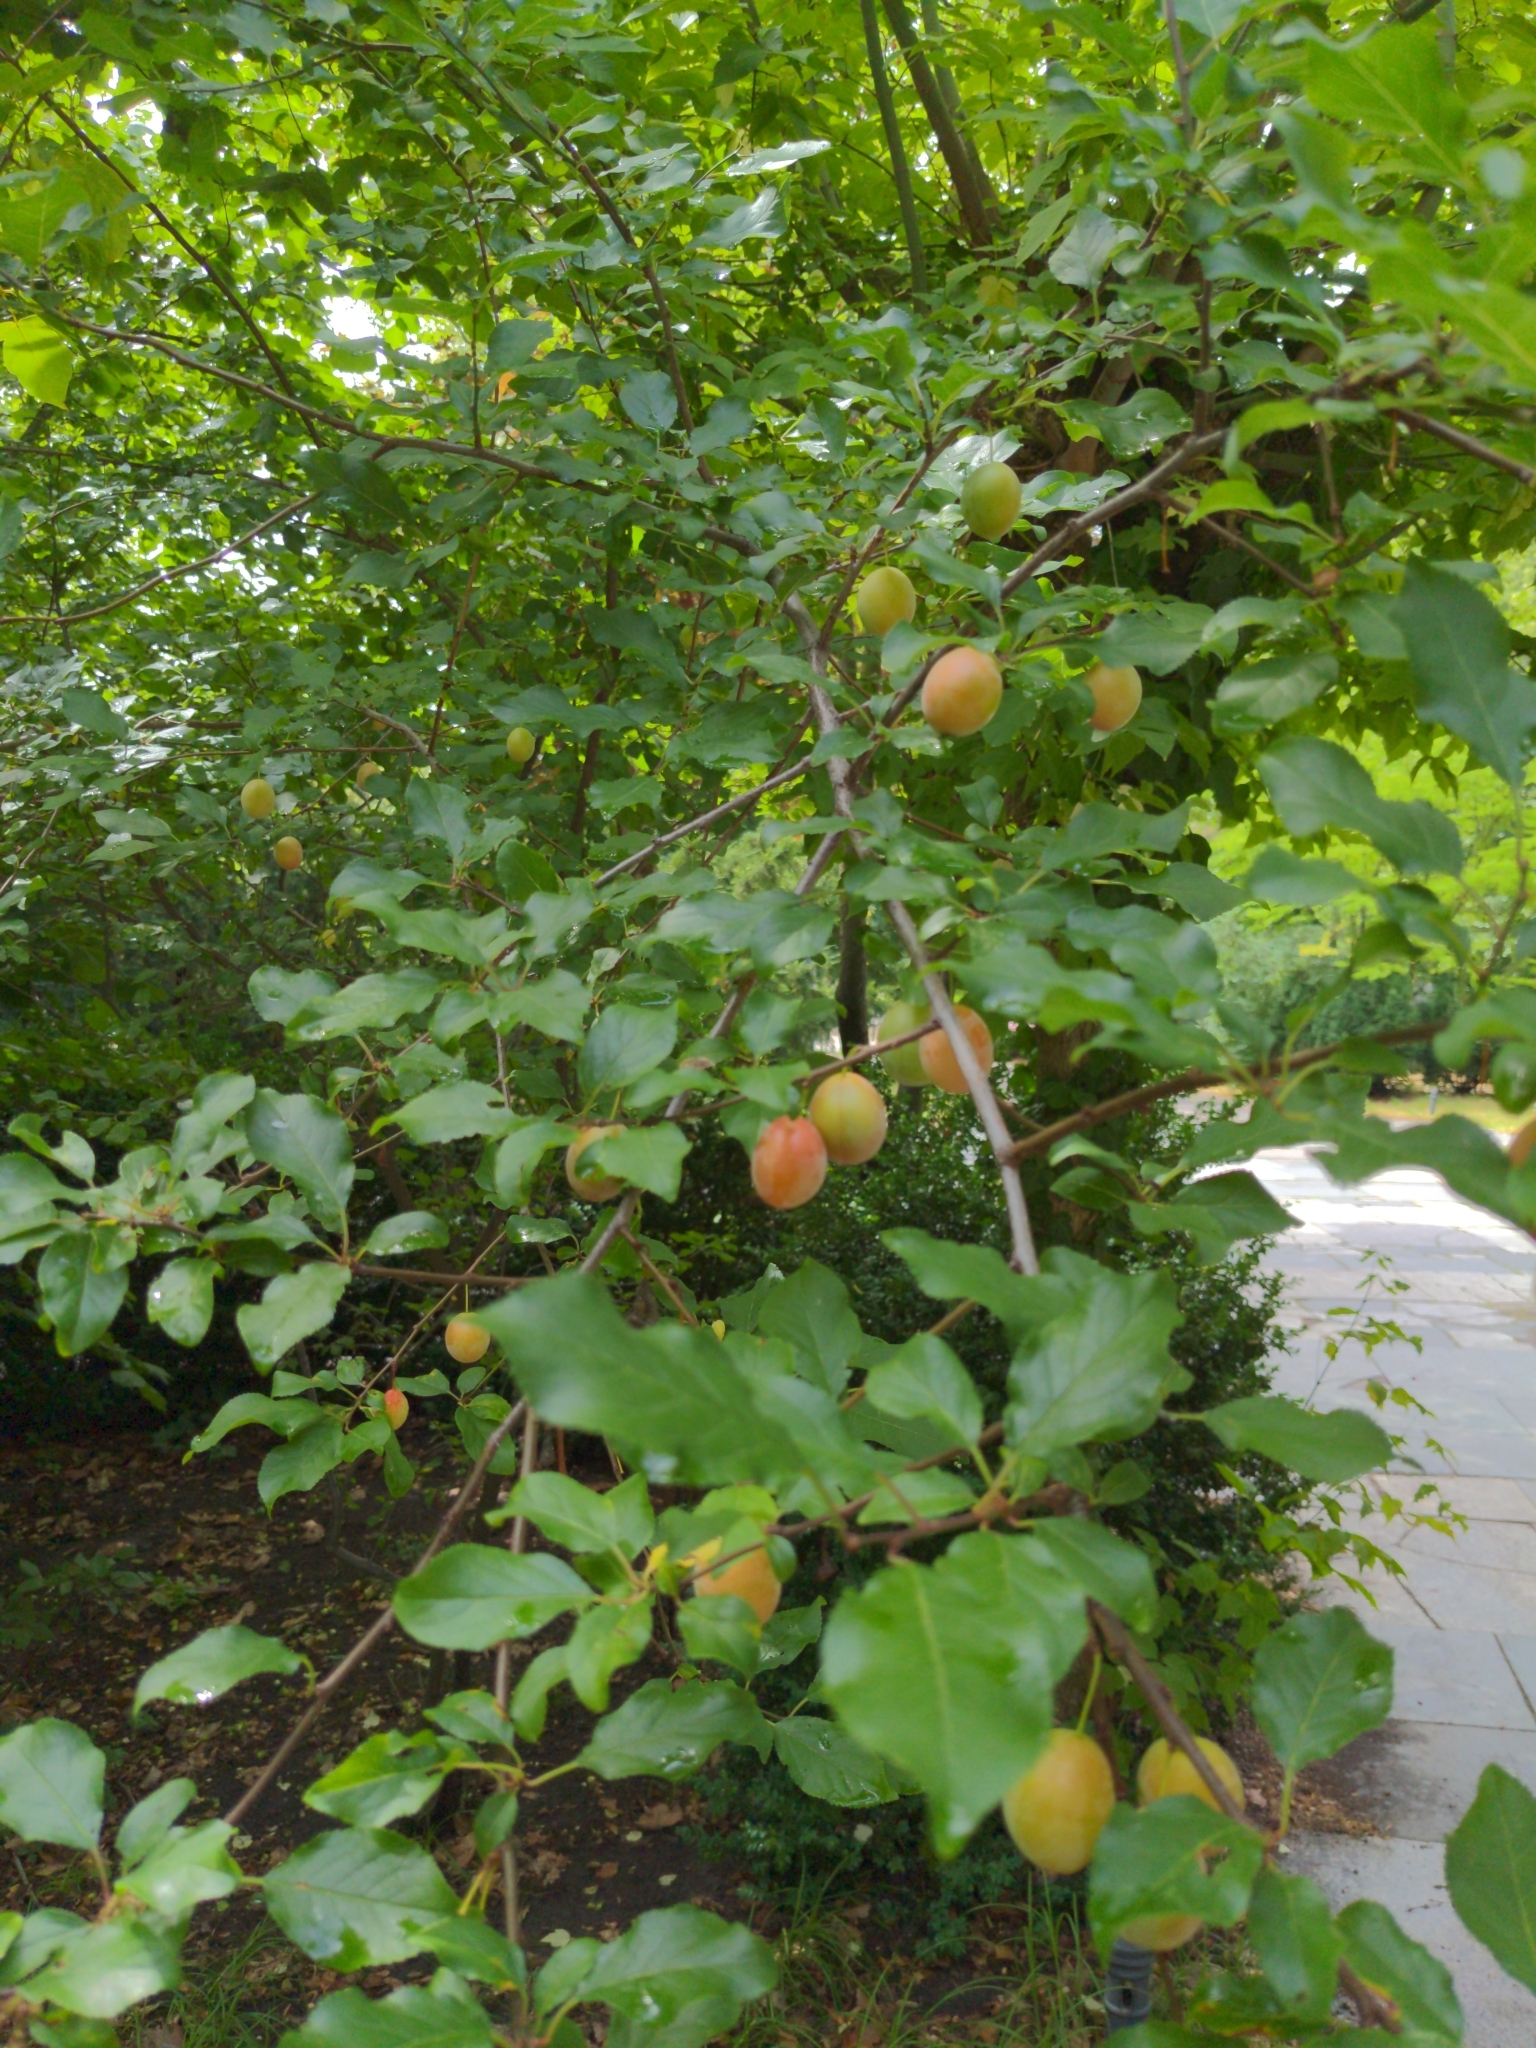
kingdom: Plantae
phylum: Tracheophyta
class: Magnoliopsida
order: Rosales
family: Rosaceae
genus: Prunus
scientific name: Prunus cerasifera
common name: Cherry plum
